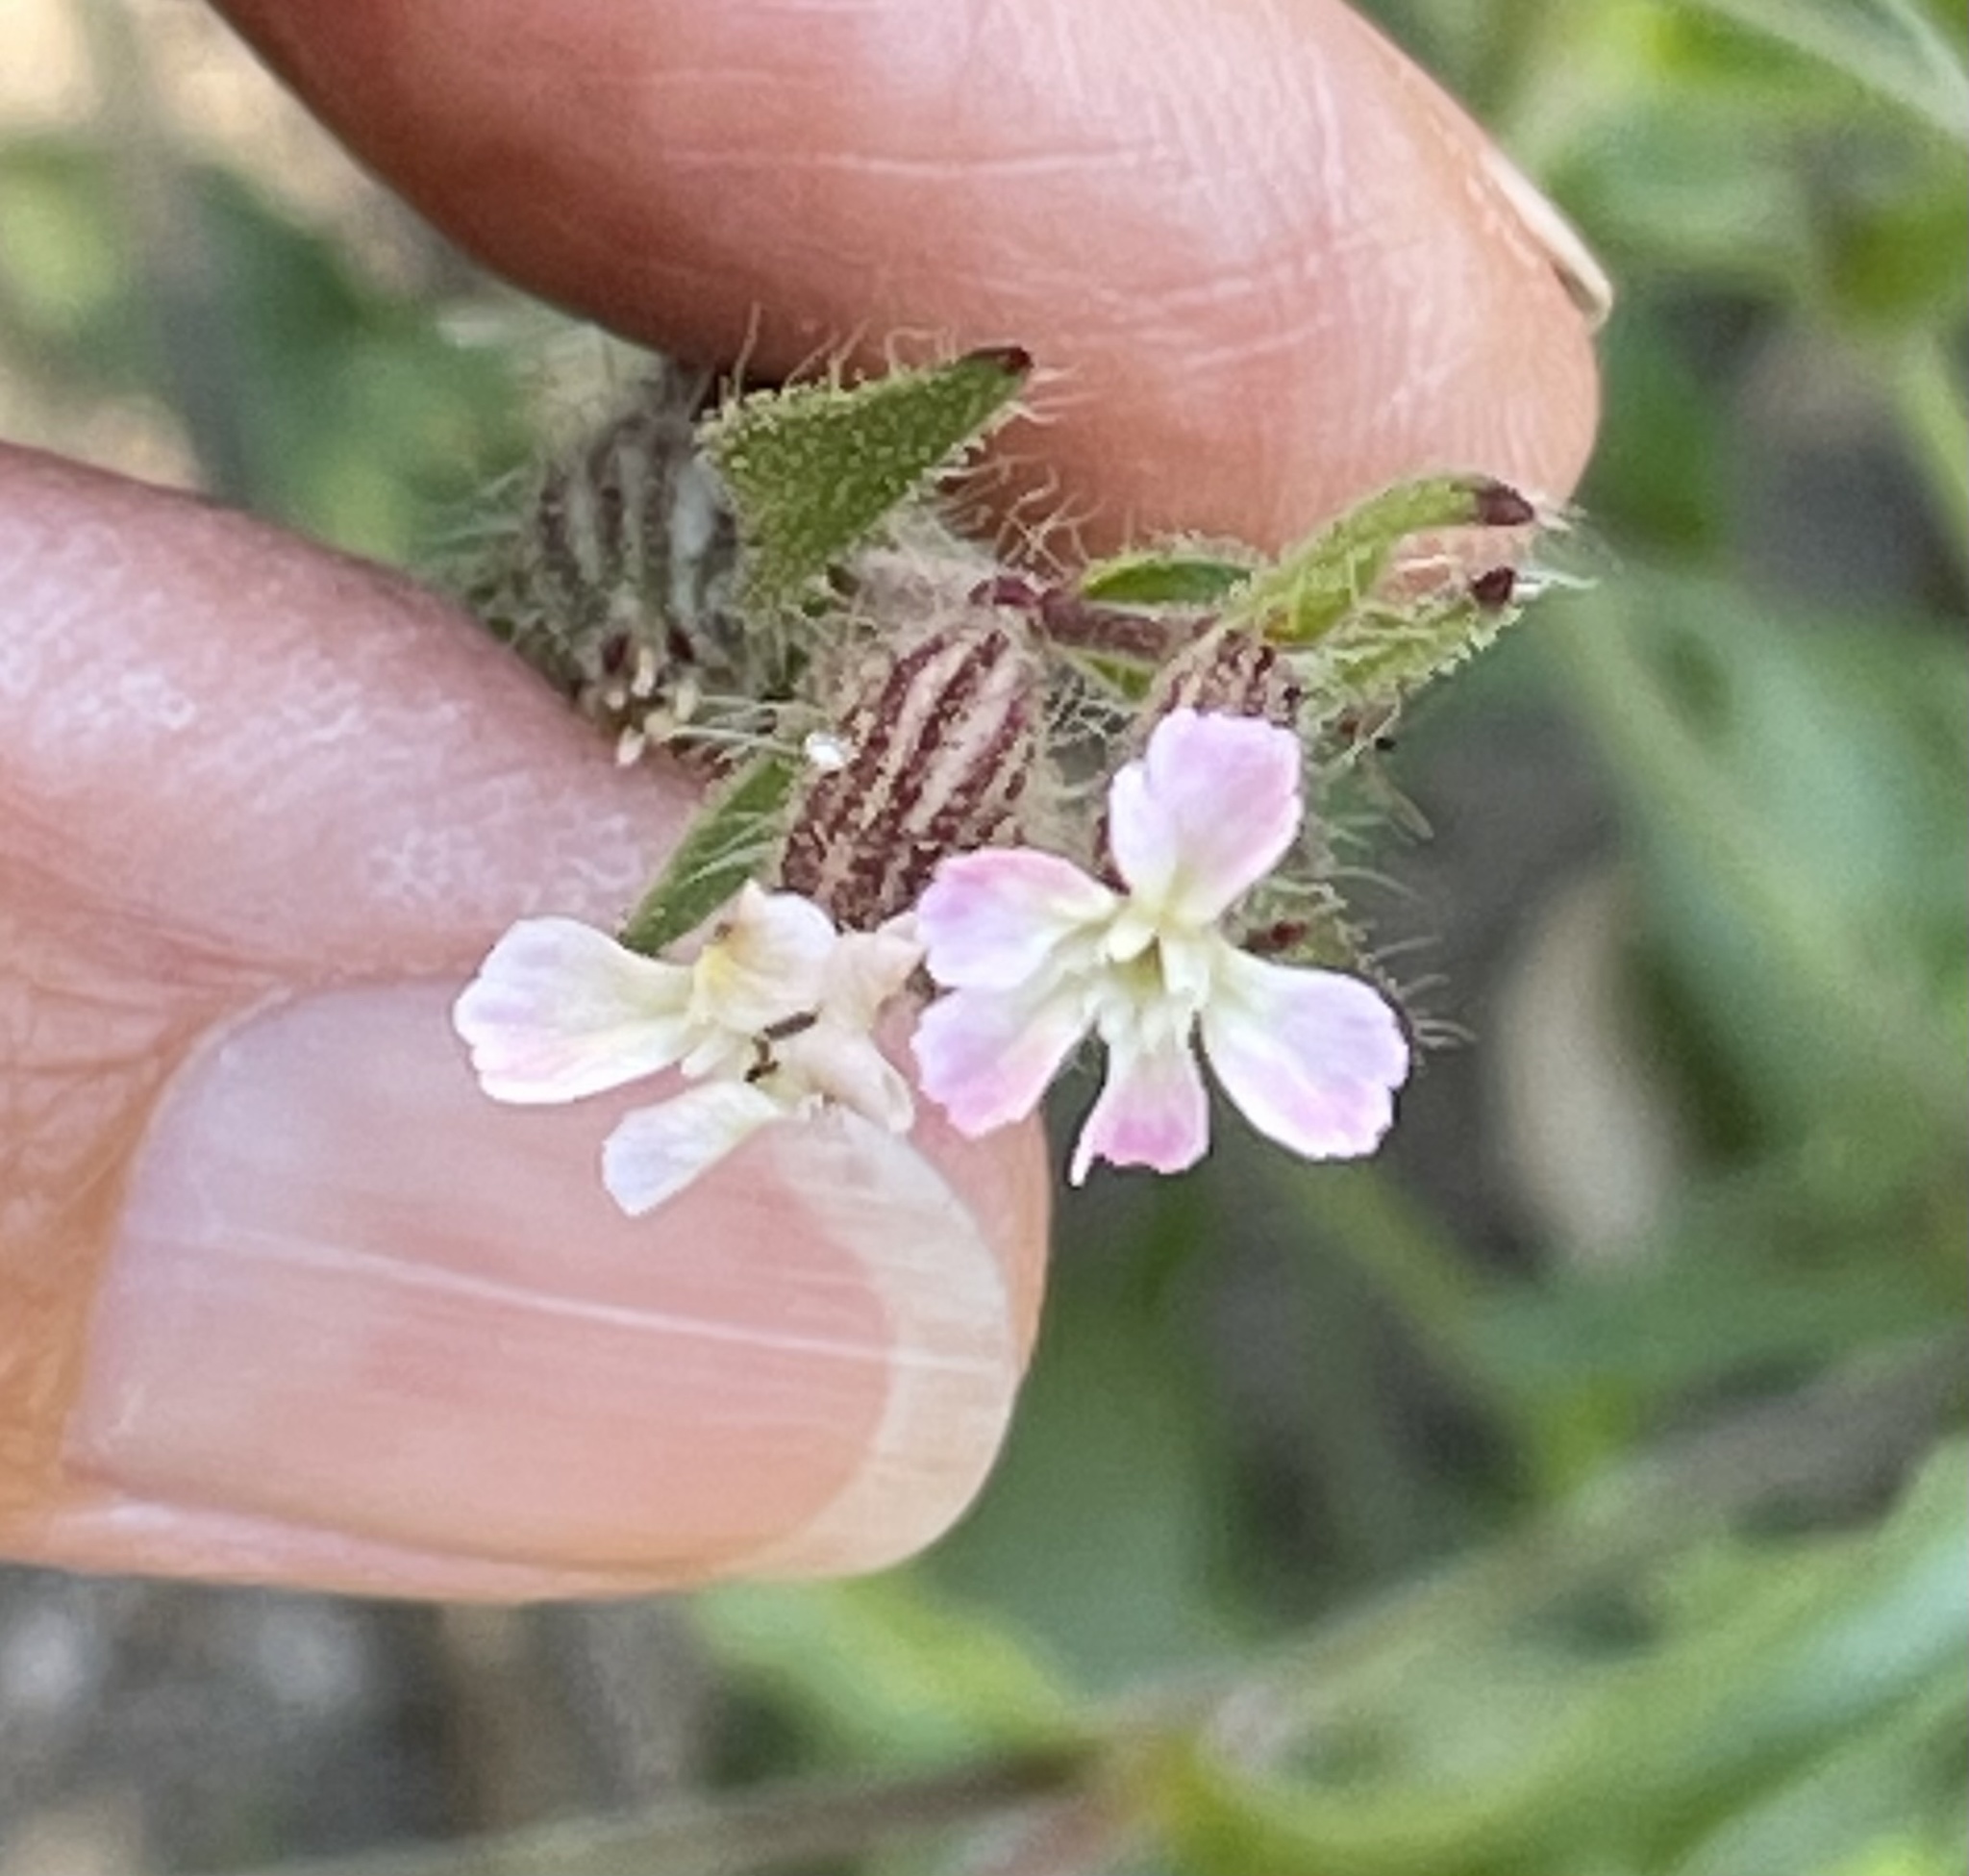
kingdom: Plantae
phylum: Tracheophyta
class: Magnoliopsida
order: Caryophyllales
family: Caryophyllaceae
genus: Silene
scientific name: Silene gallica
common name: Small-flowered catchfly
